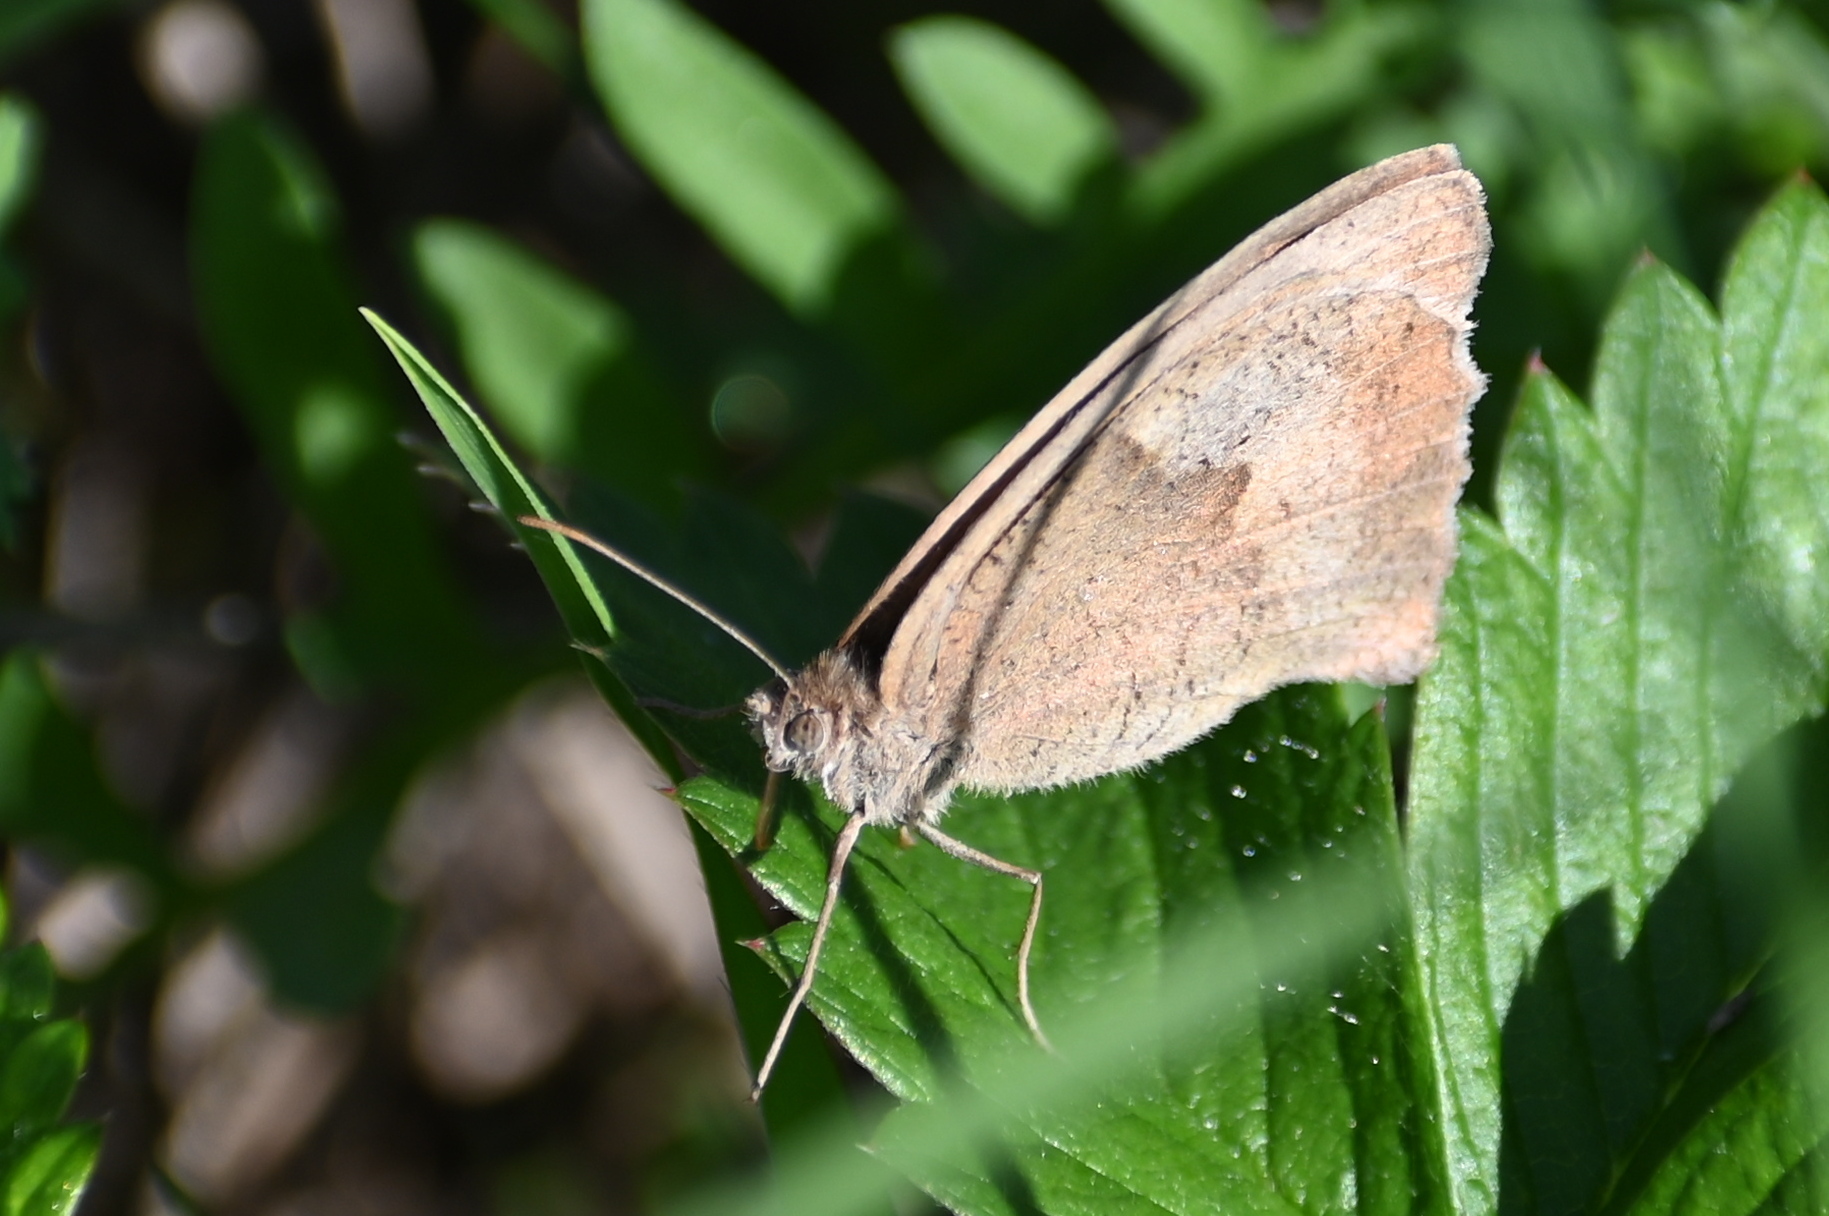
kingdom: Animalia
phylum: Arthropoda
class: Insecta
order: Lepidoptera
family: Nymphalidae
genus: Maniola
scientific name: Maniola jurtina
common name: Meadow brown
